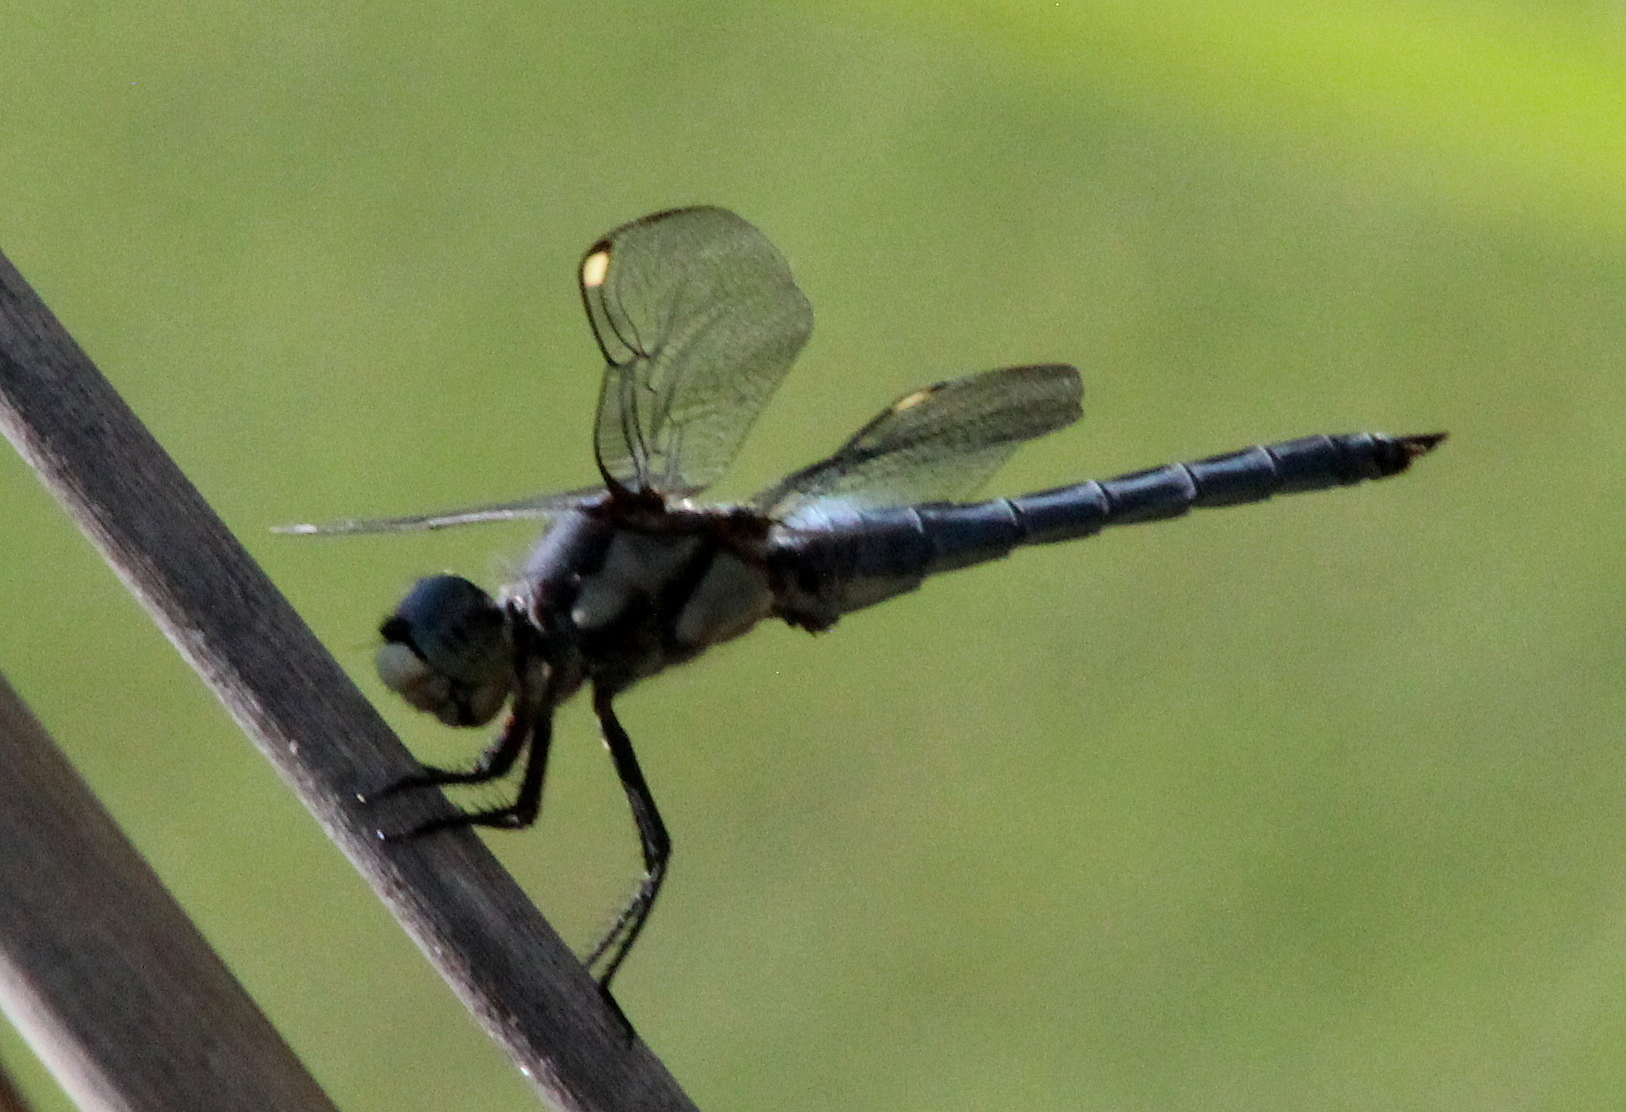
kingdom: Animalia
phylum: Arthropoda
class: Insecta
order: Odonata
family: Libellulidae
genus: Libellula
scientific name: Libellula comanche
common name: Comanche skimmer
